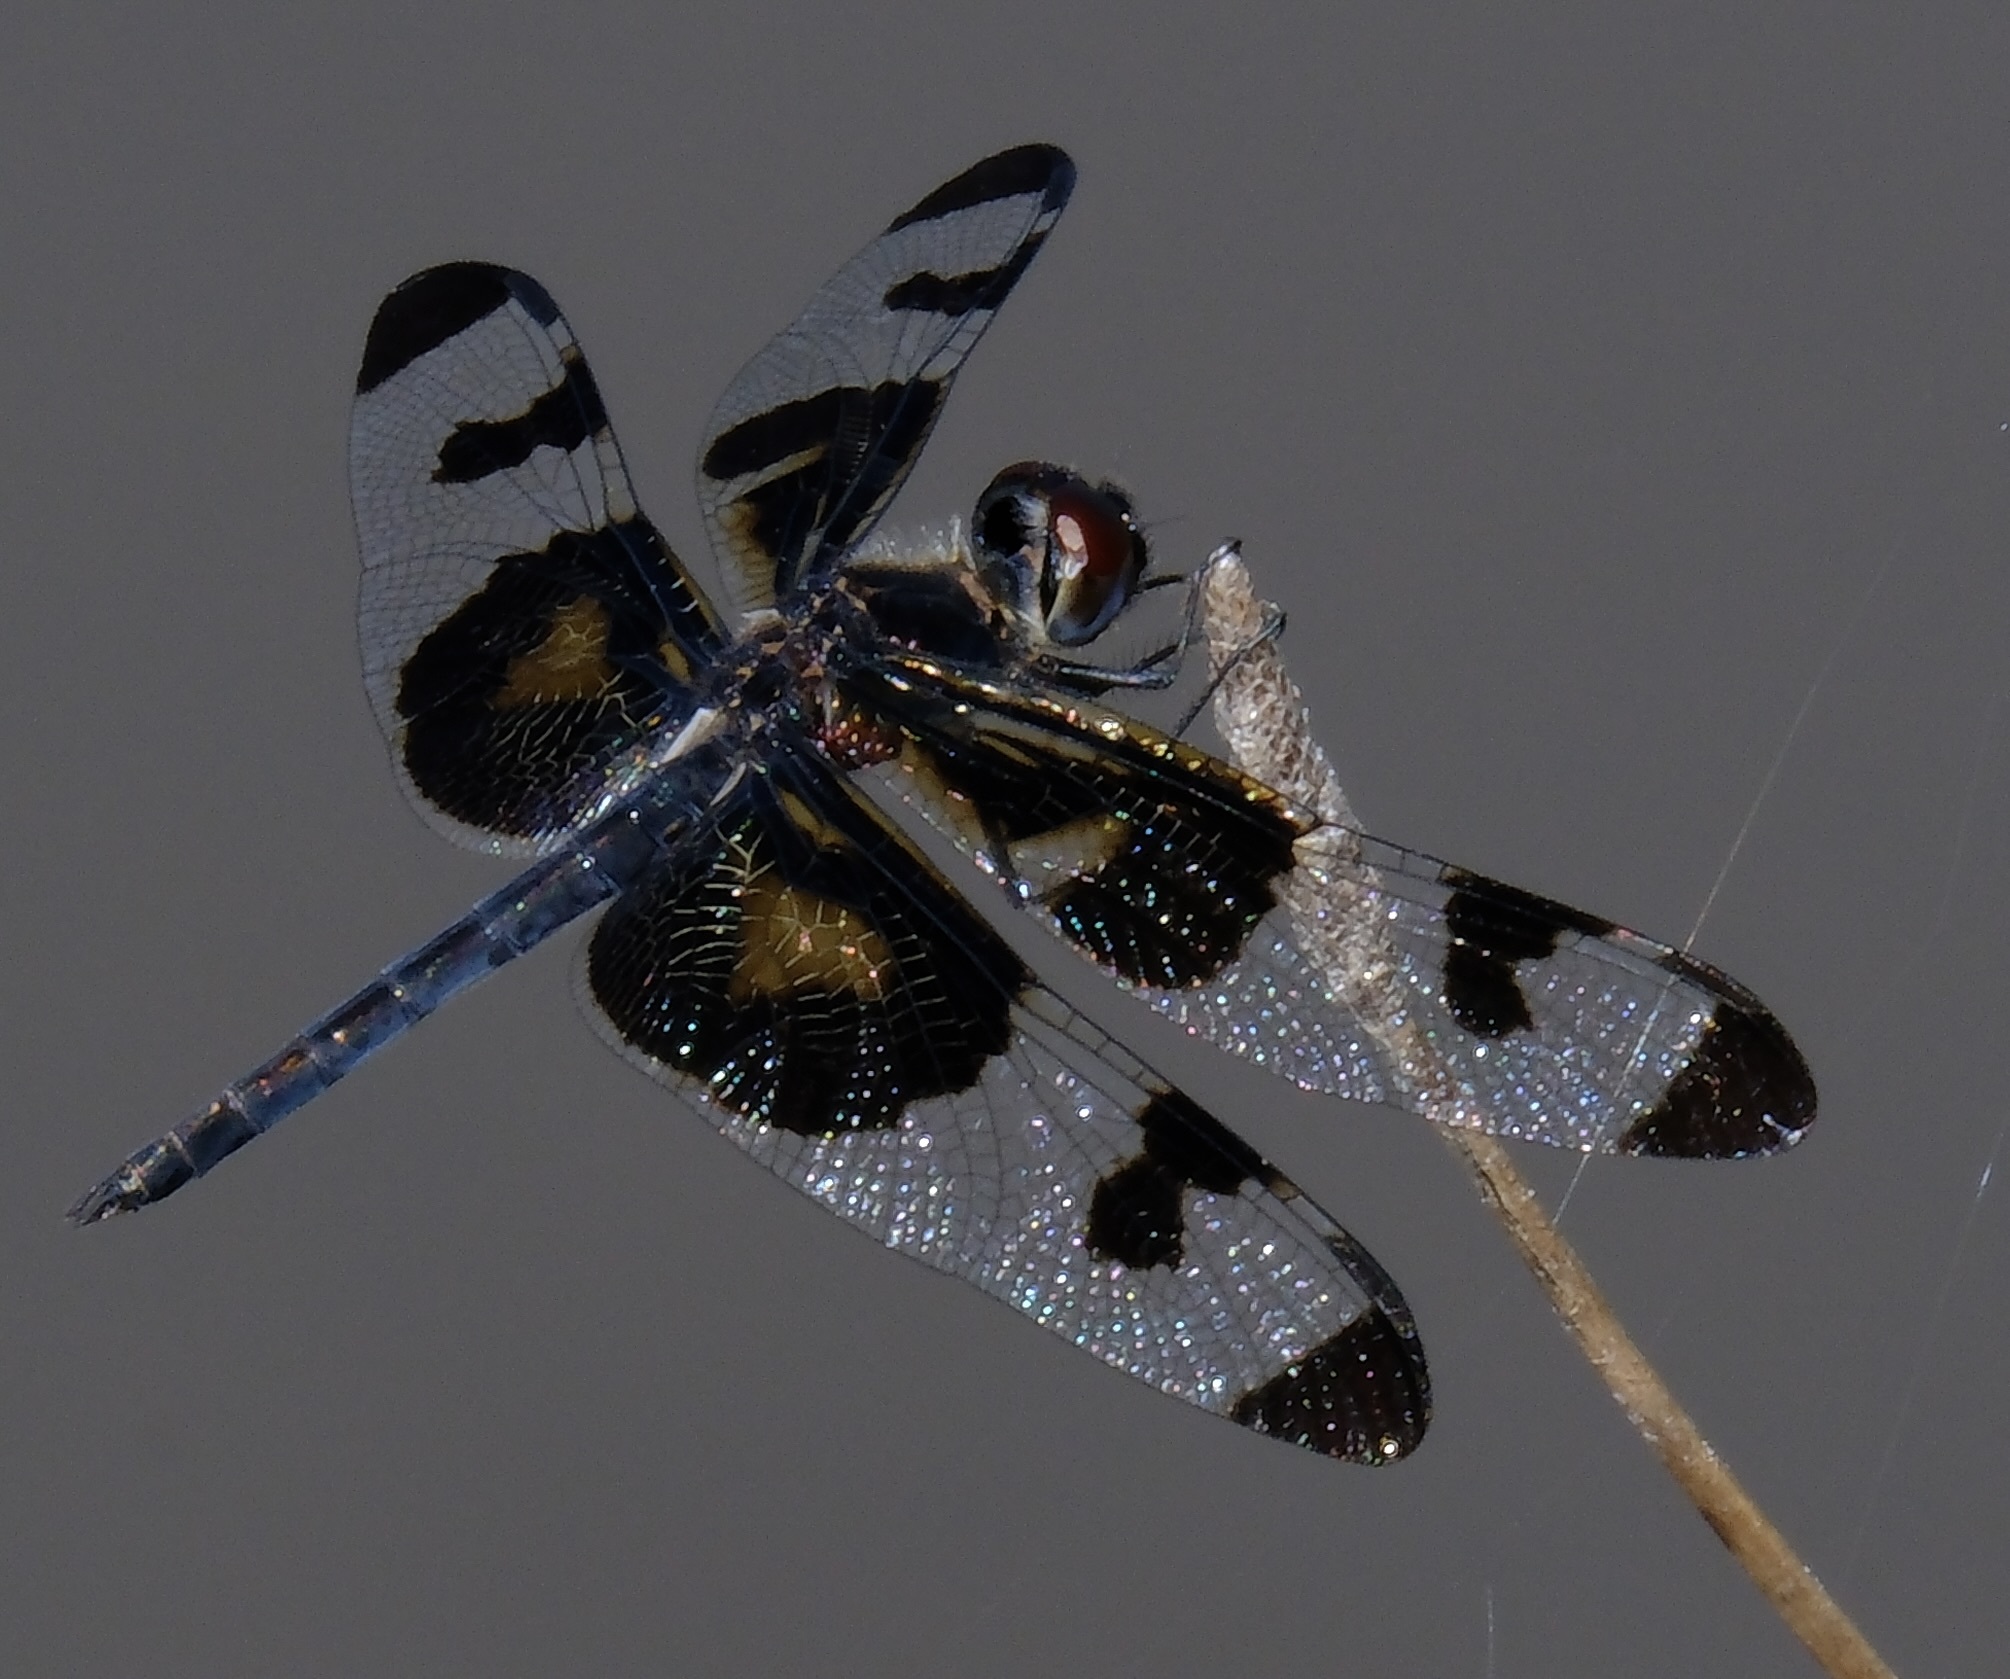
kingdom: Animalia
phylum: Arthropoda
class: Insecta
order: Odonata
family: Libellulidae
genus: Celithemis
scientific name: Celithemis fasciata
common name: Banded pennant
